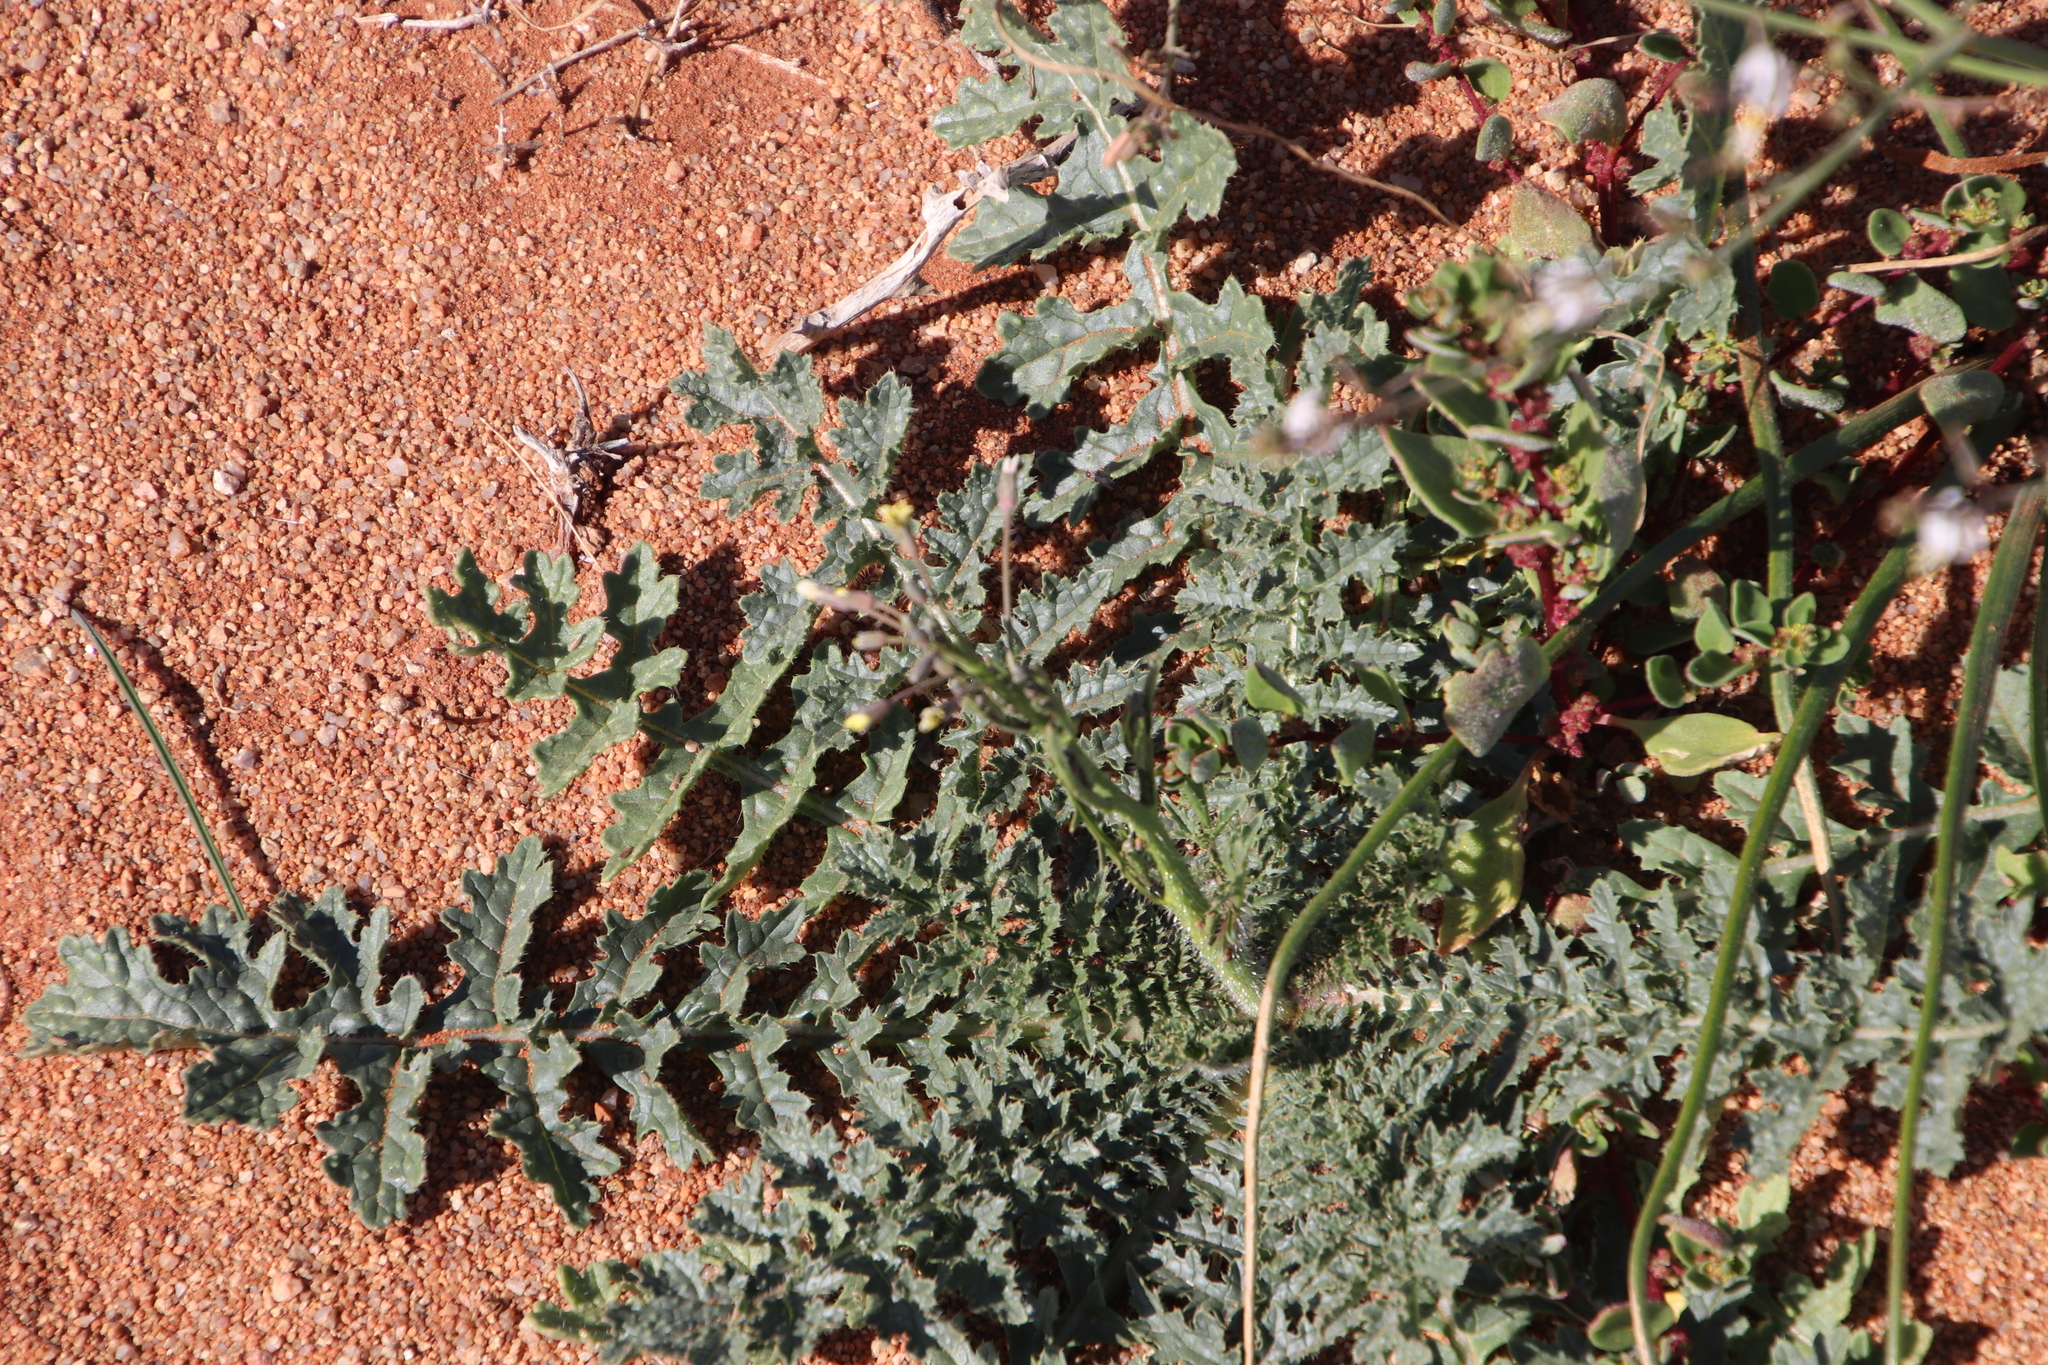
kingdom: Plantae
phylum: Tracheophyta
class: Magnoliopsida
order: Brassicales
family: Brassicaceae
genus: Brassica
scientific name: Brassica tournefortii
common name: Pale cabbage
